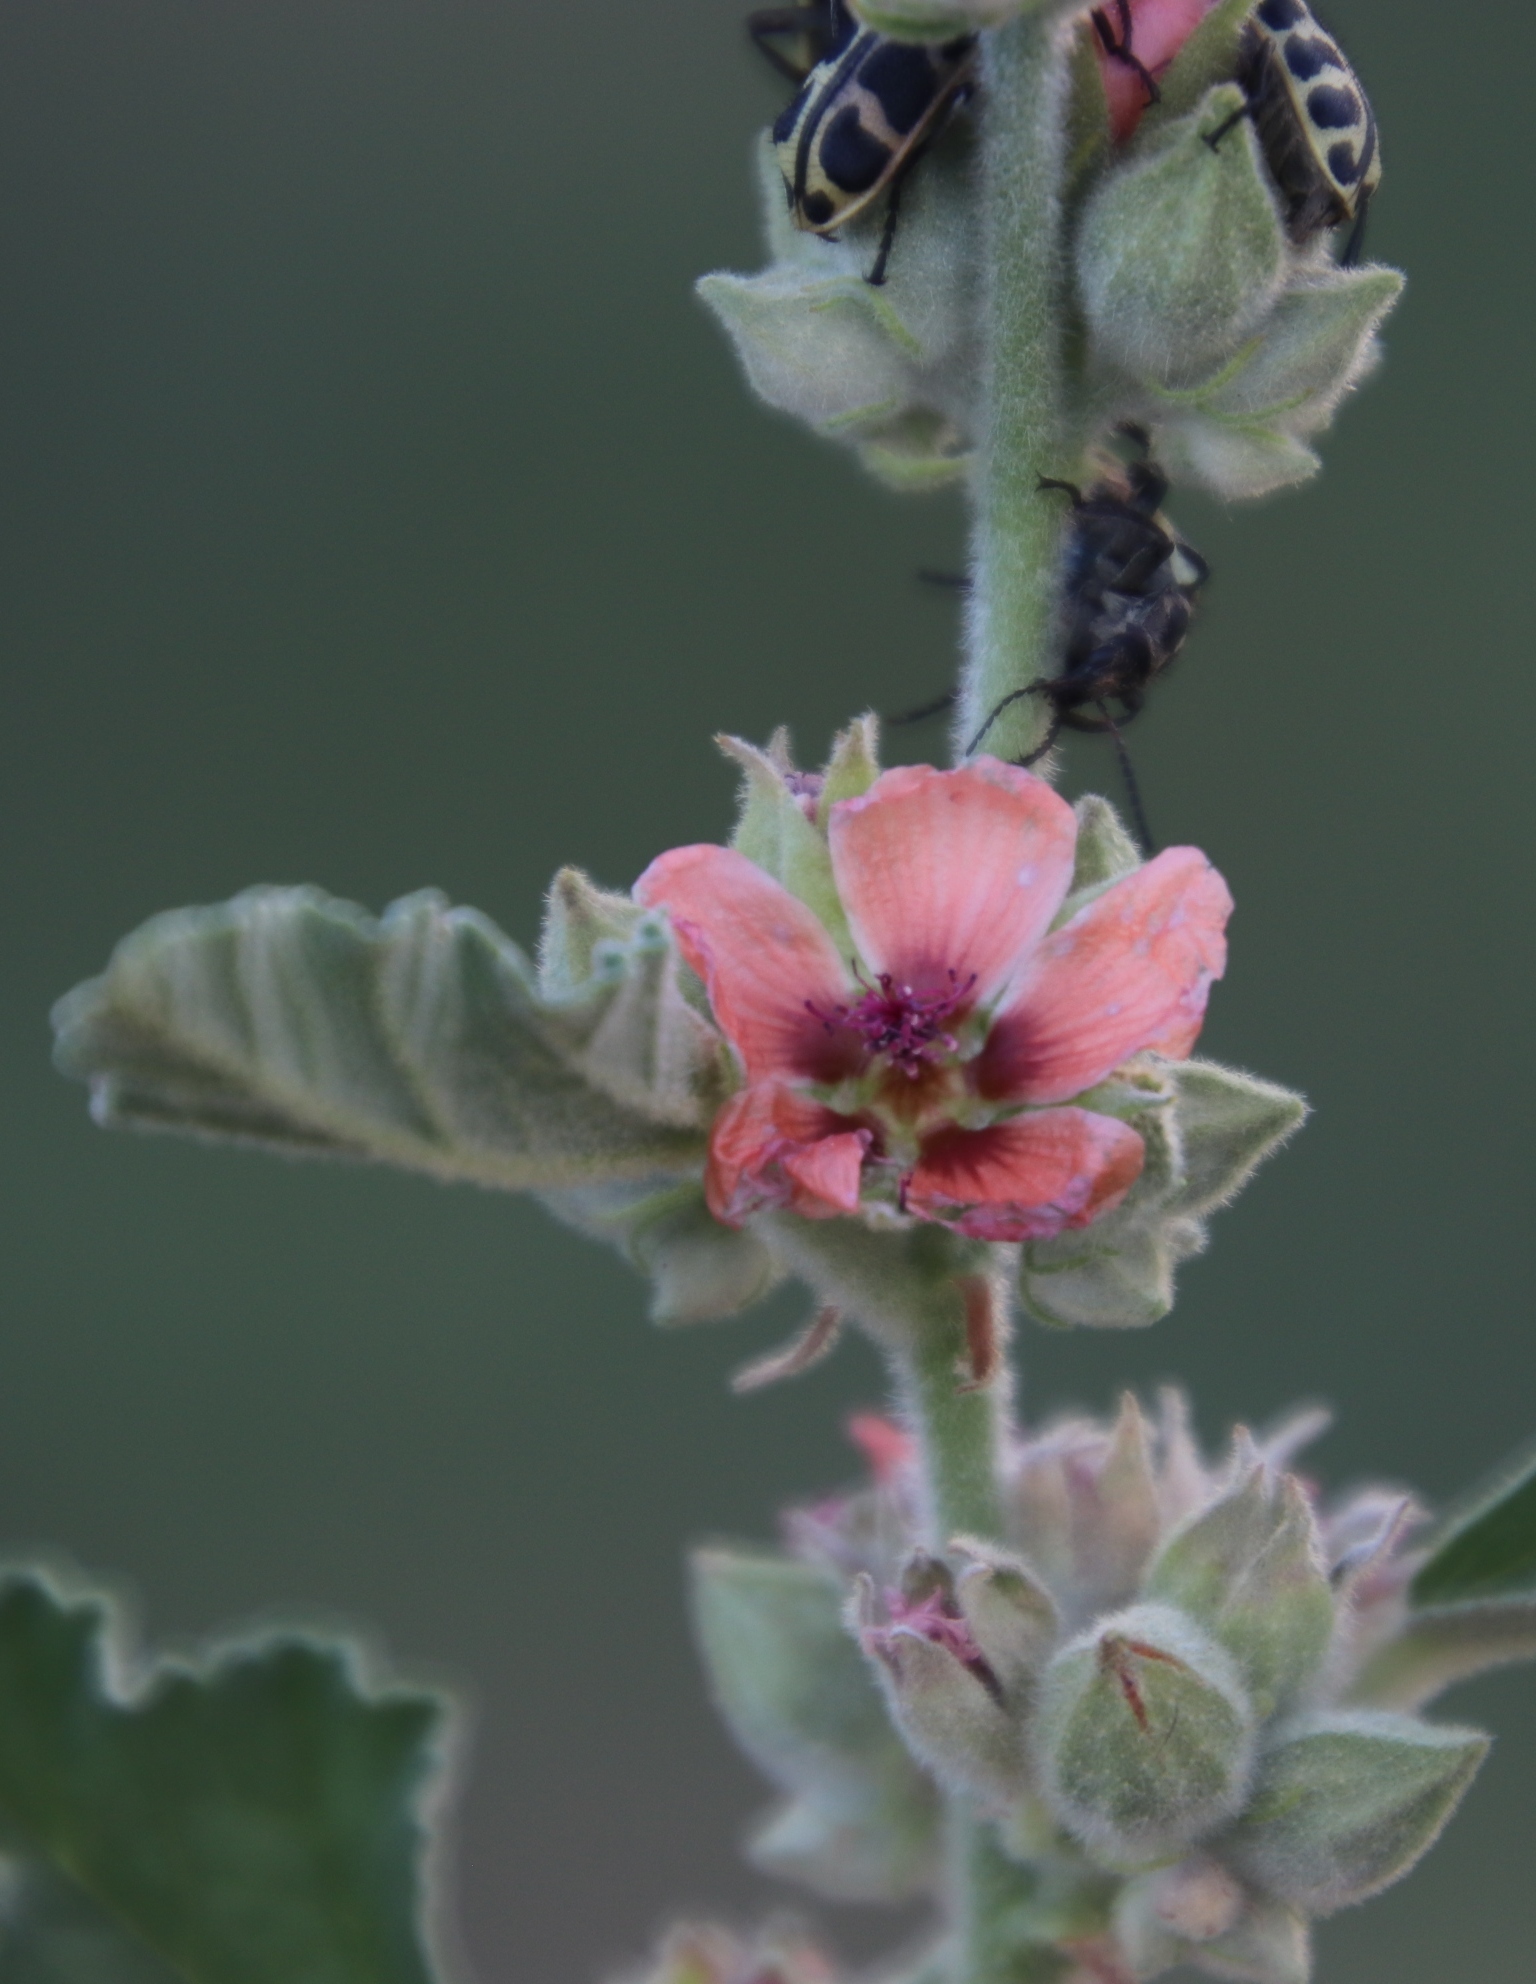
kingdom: Animalia
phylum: Arthropoda
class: Insecta
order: Coleoptera
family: Melyridae
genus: Astylus
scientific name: Astylus atromaculatus
